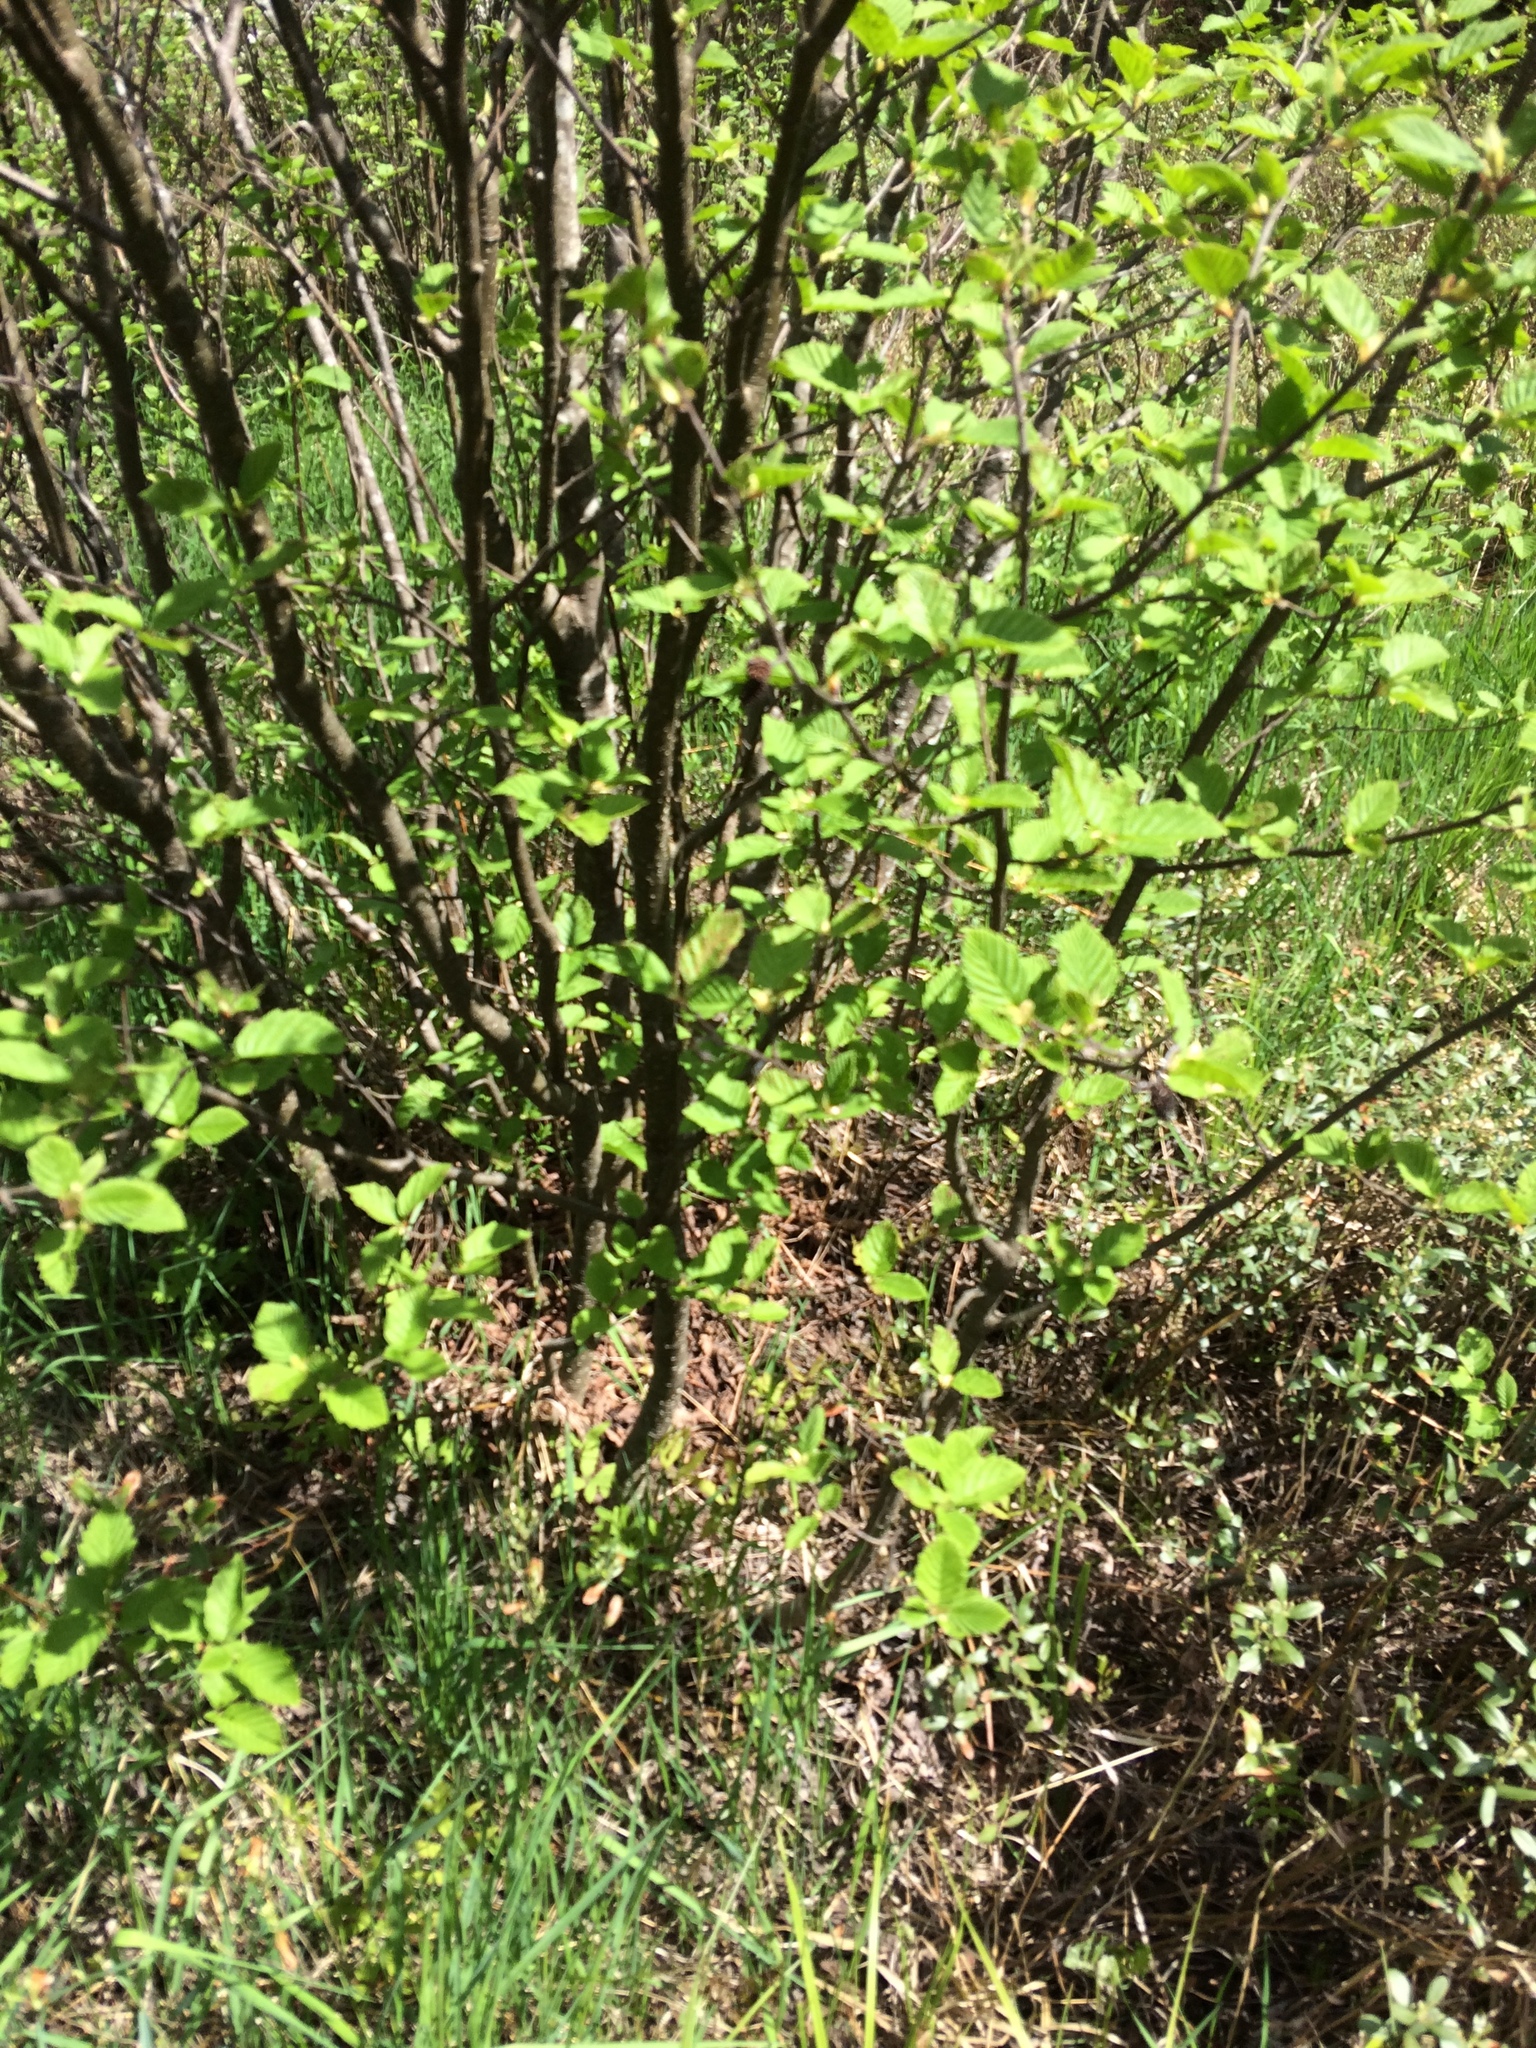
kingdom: Plantae
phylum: Tracheophyta
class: Magnoliopsida
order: Fagales
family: Betulaceae
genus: Alnus
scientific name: Alnus incana
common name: Grey alder
